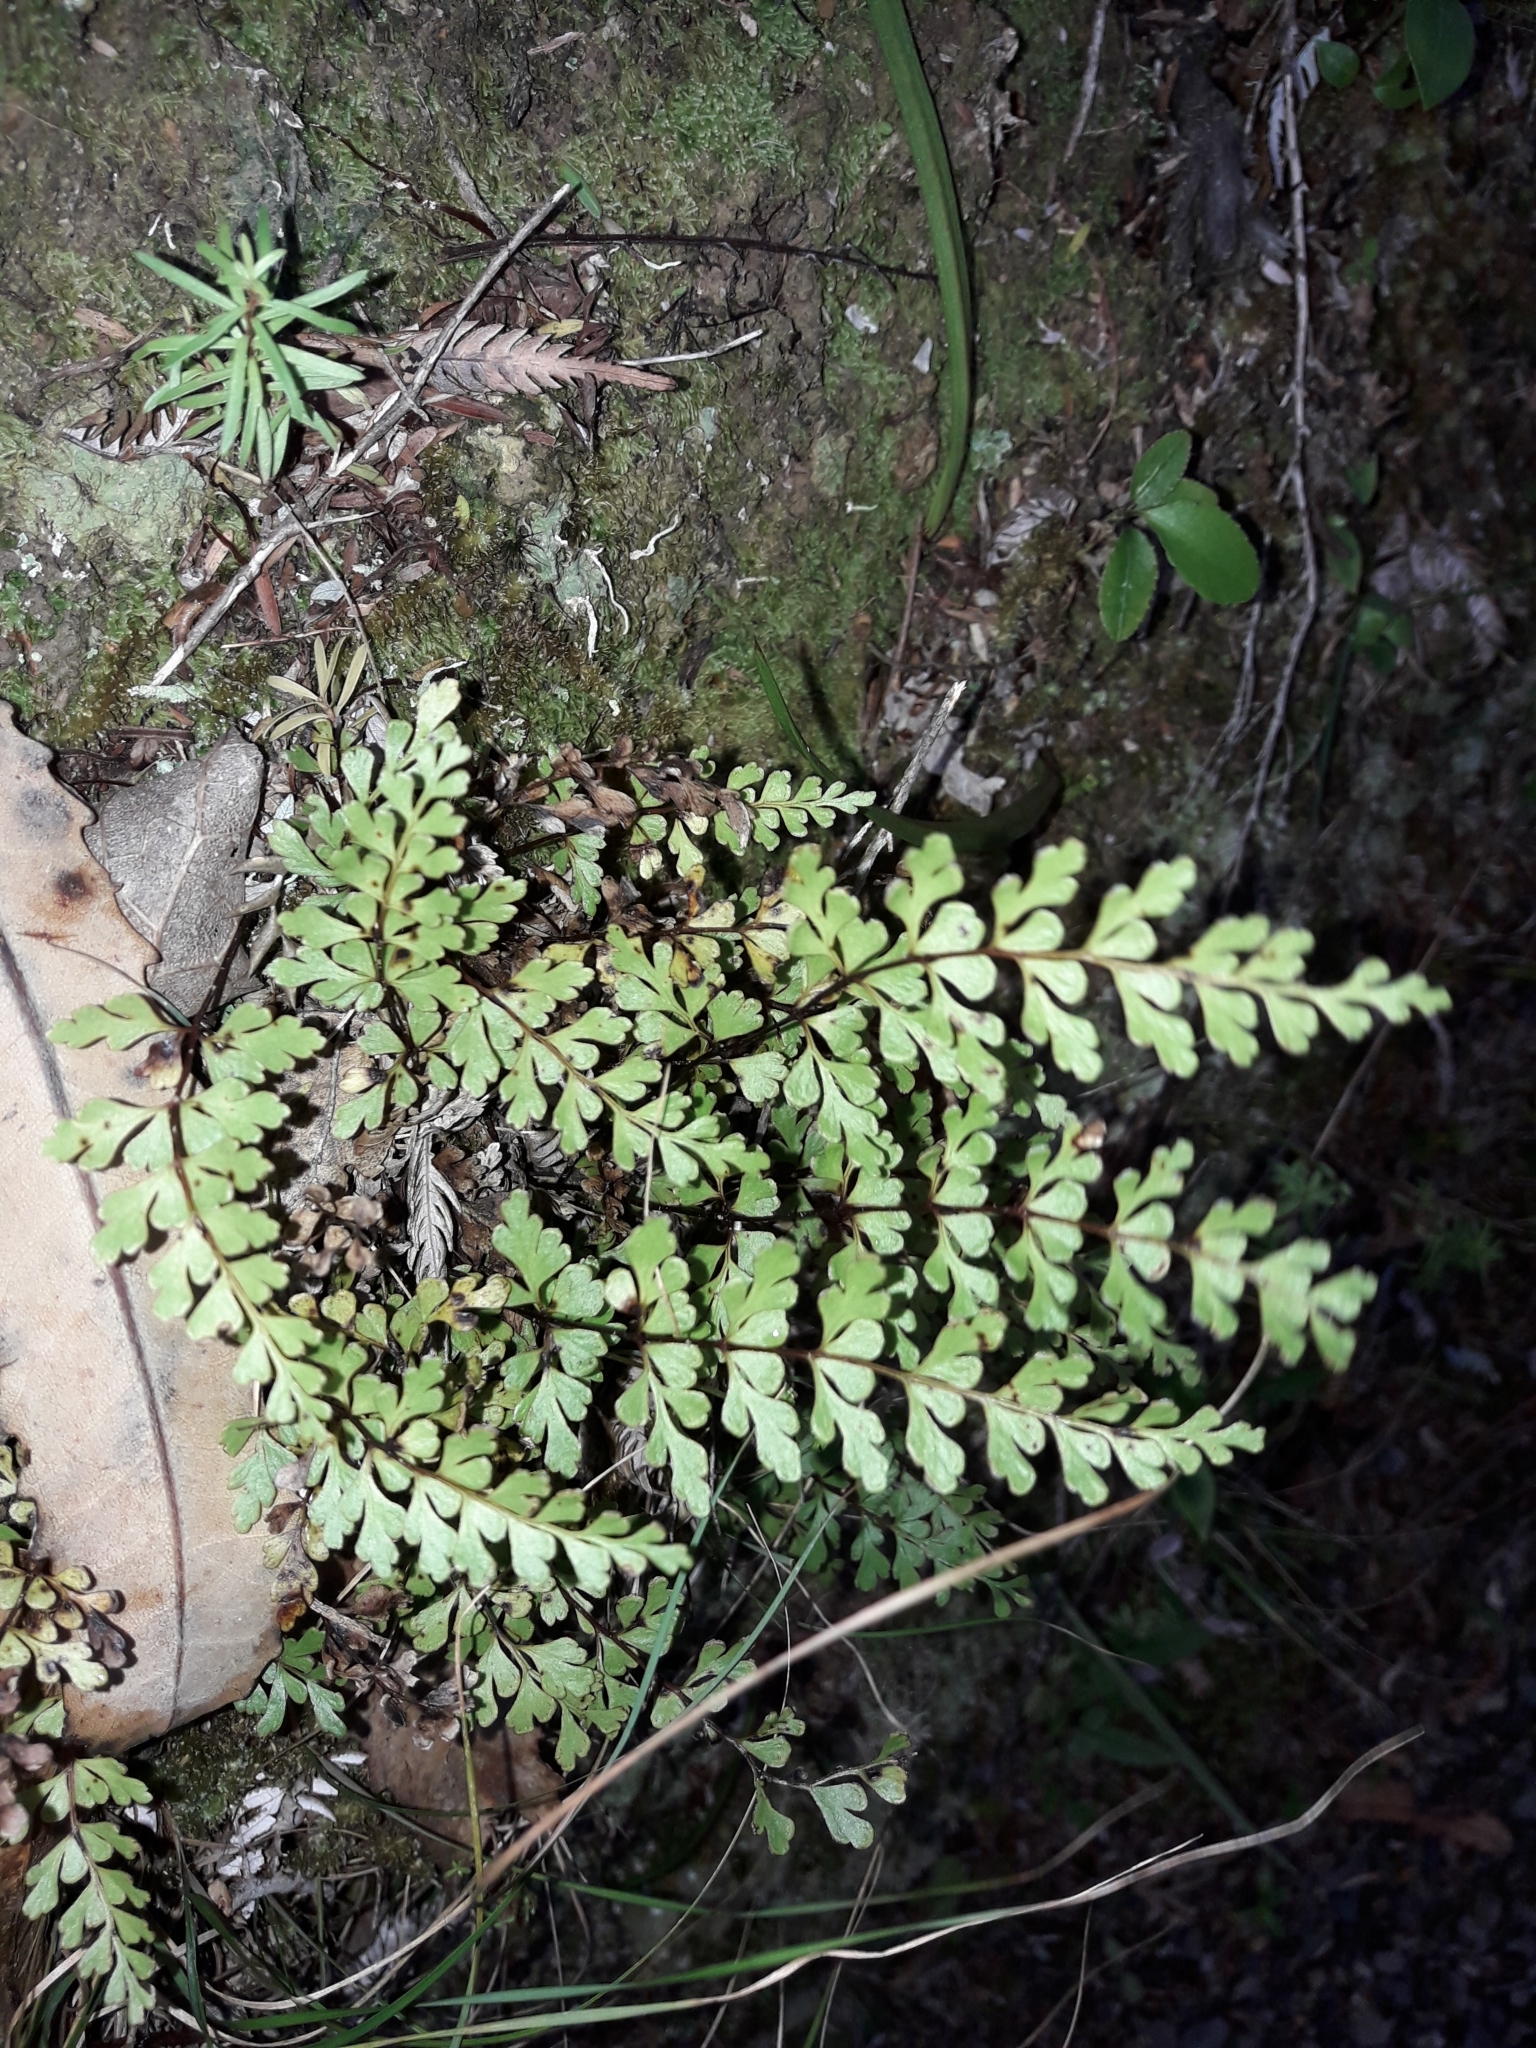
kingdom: Plantae
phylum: Tracheophyta
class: Polypodiopsida
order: Polypodiales
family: Lindsaeaceae
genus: Lindsaea
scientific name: Lindsaea trichomanoides
